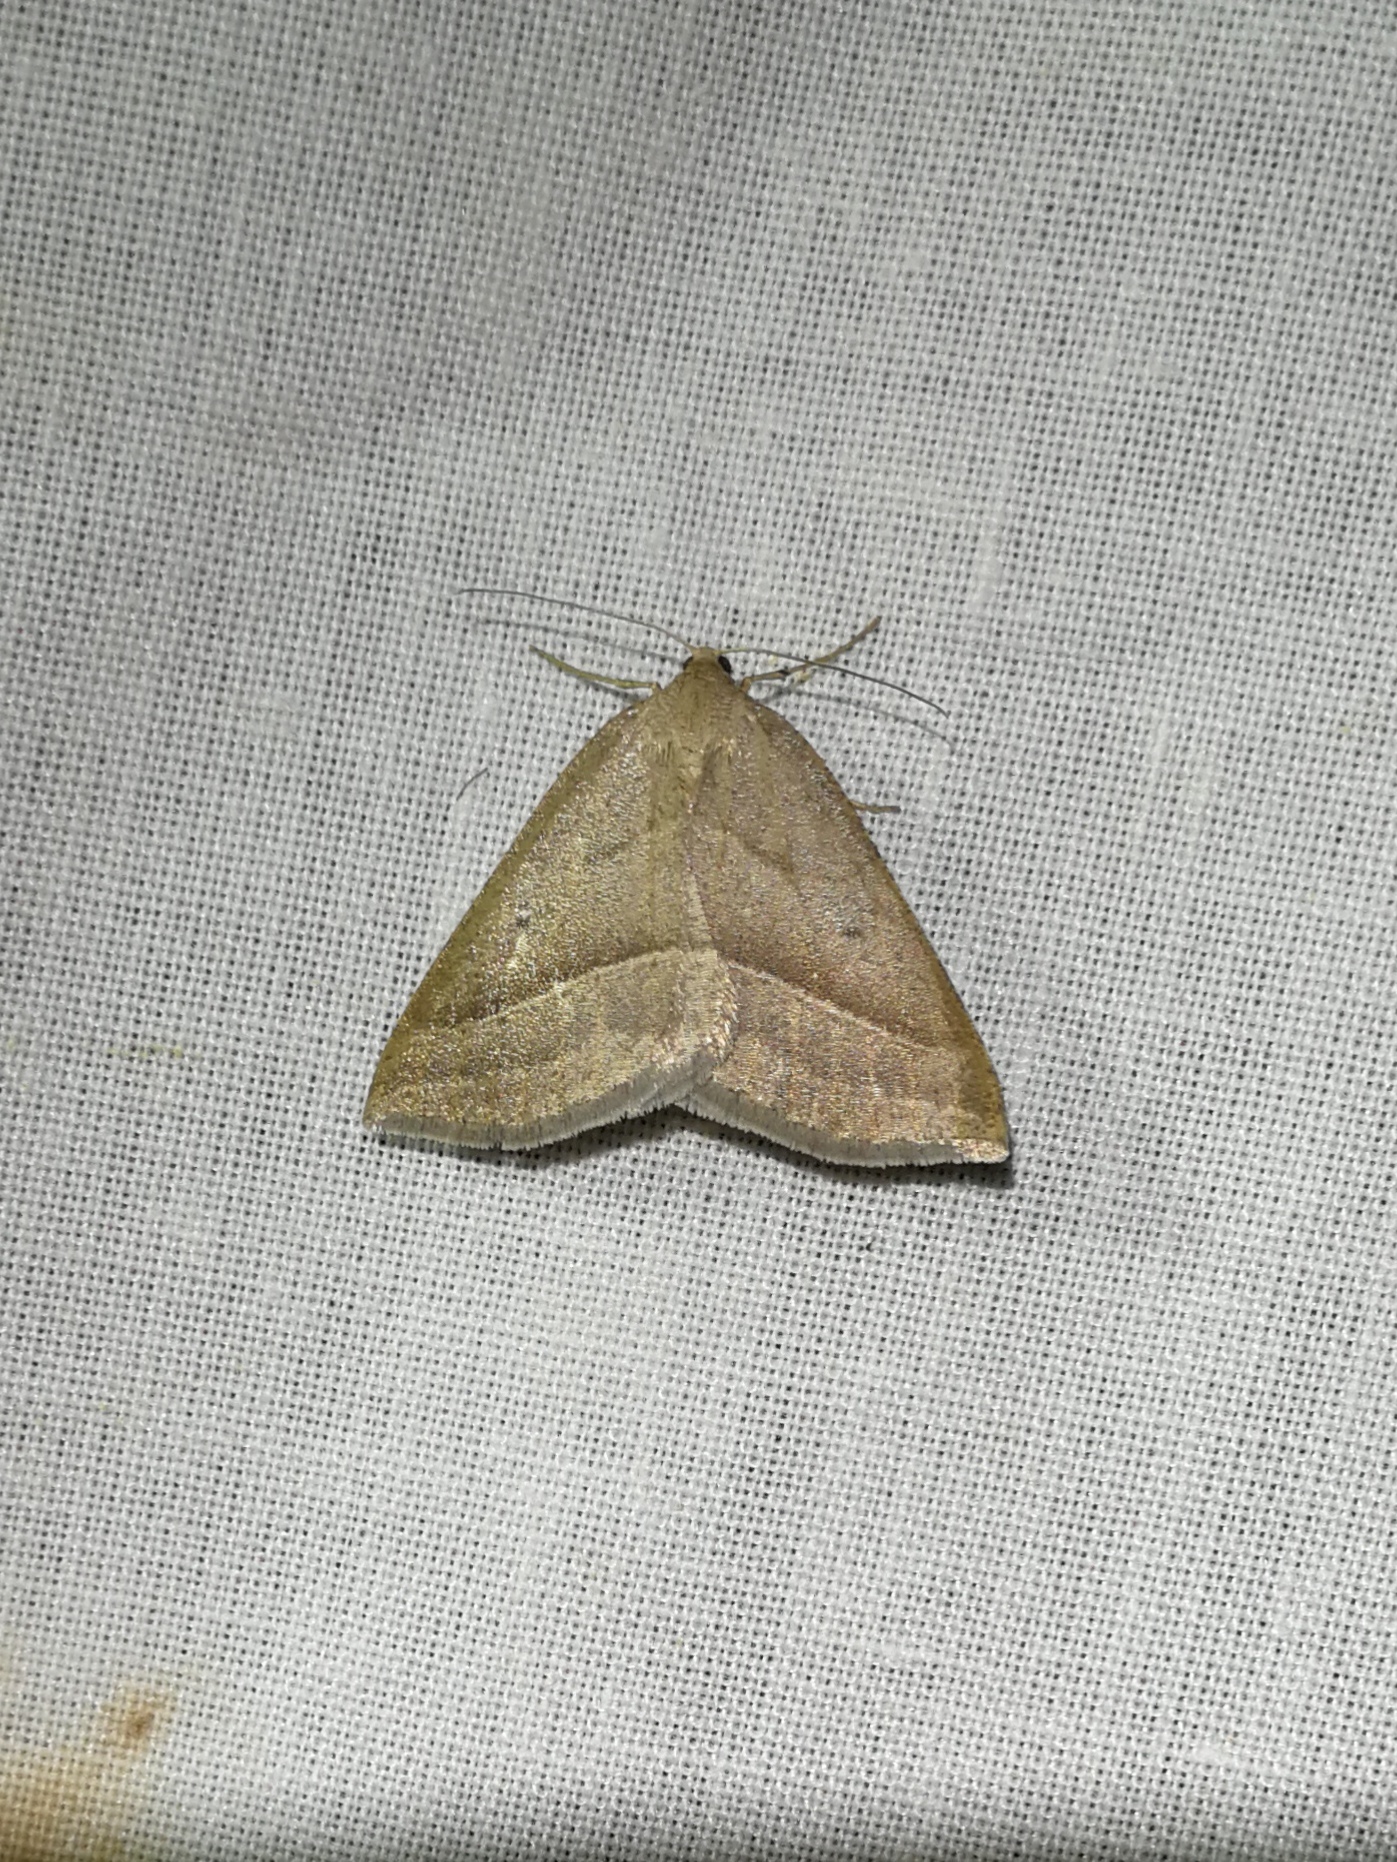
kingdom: Animalia
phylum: Arthropoda
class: Insecta
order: Lepidoptera
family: Pterophoridae
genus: Pterophorus
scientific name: Pterophorus Petrophora chlorosata
